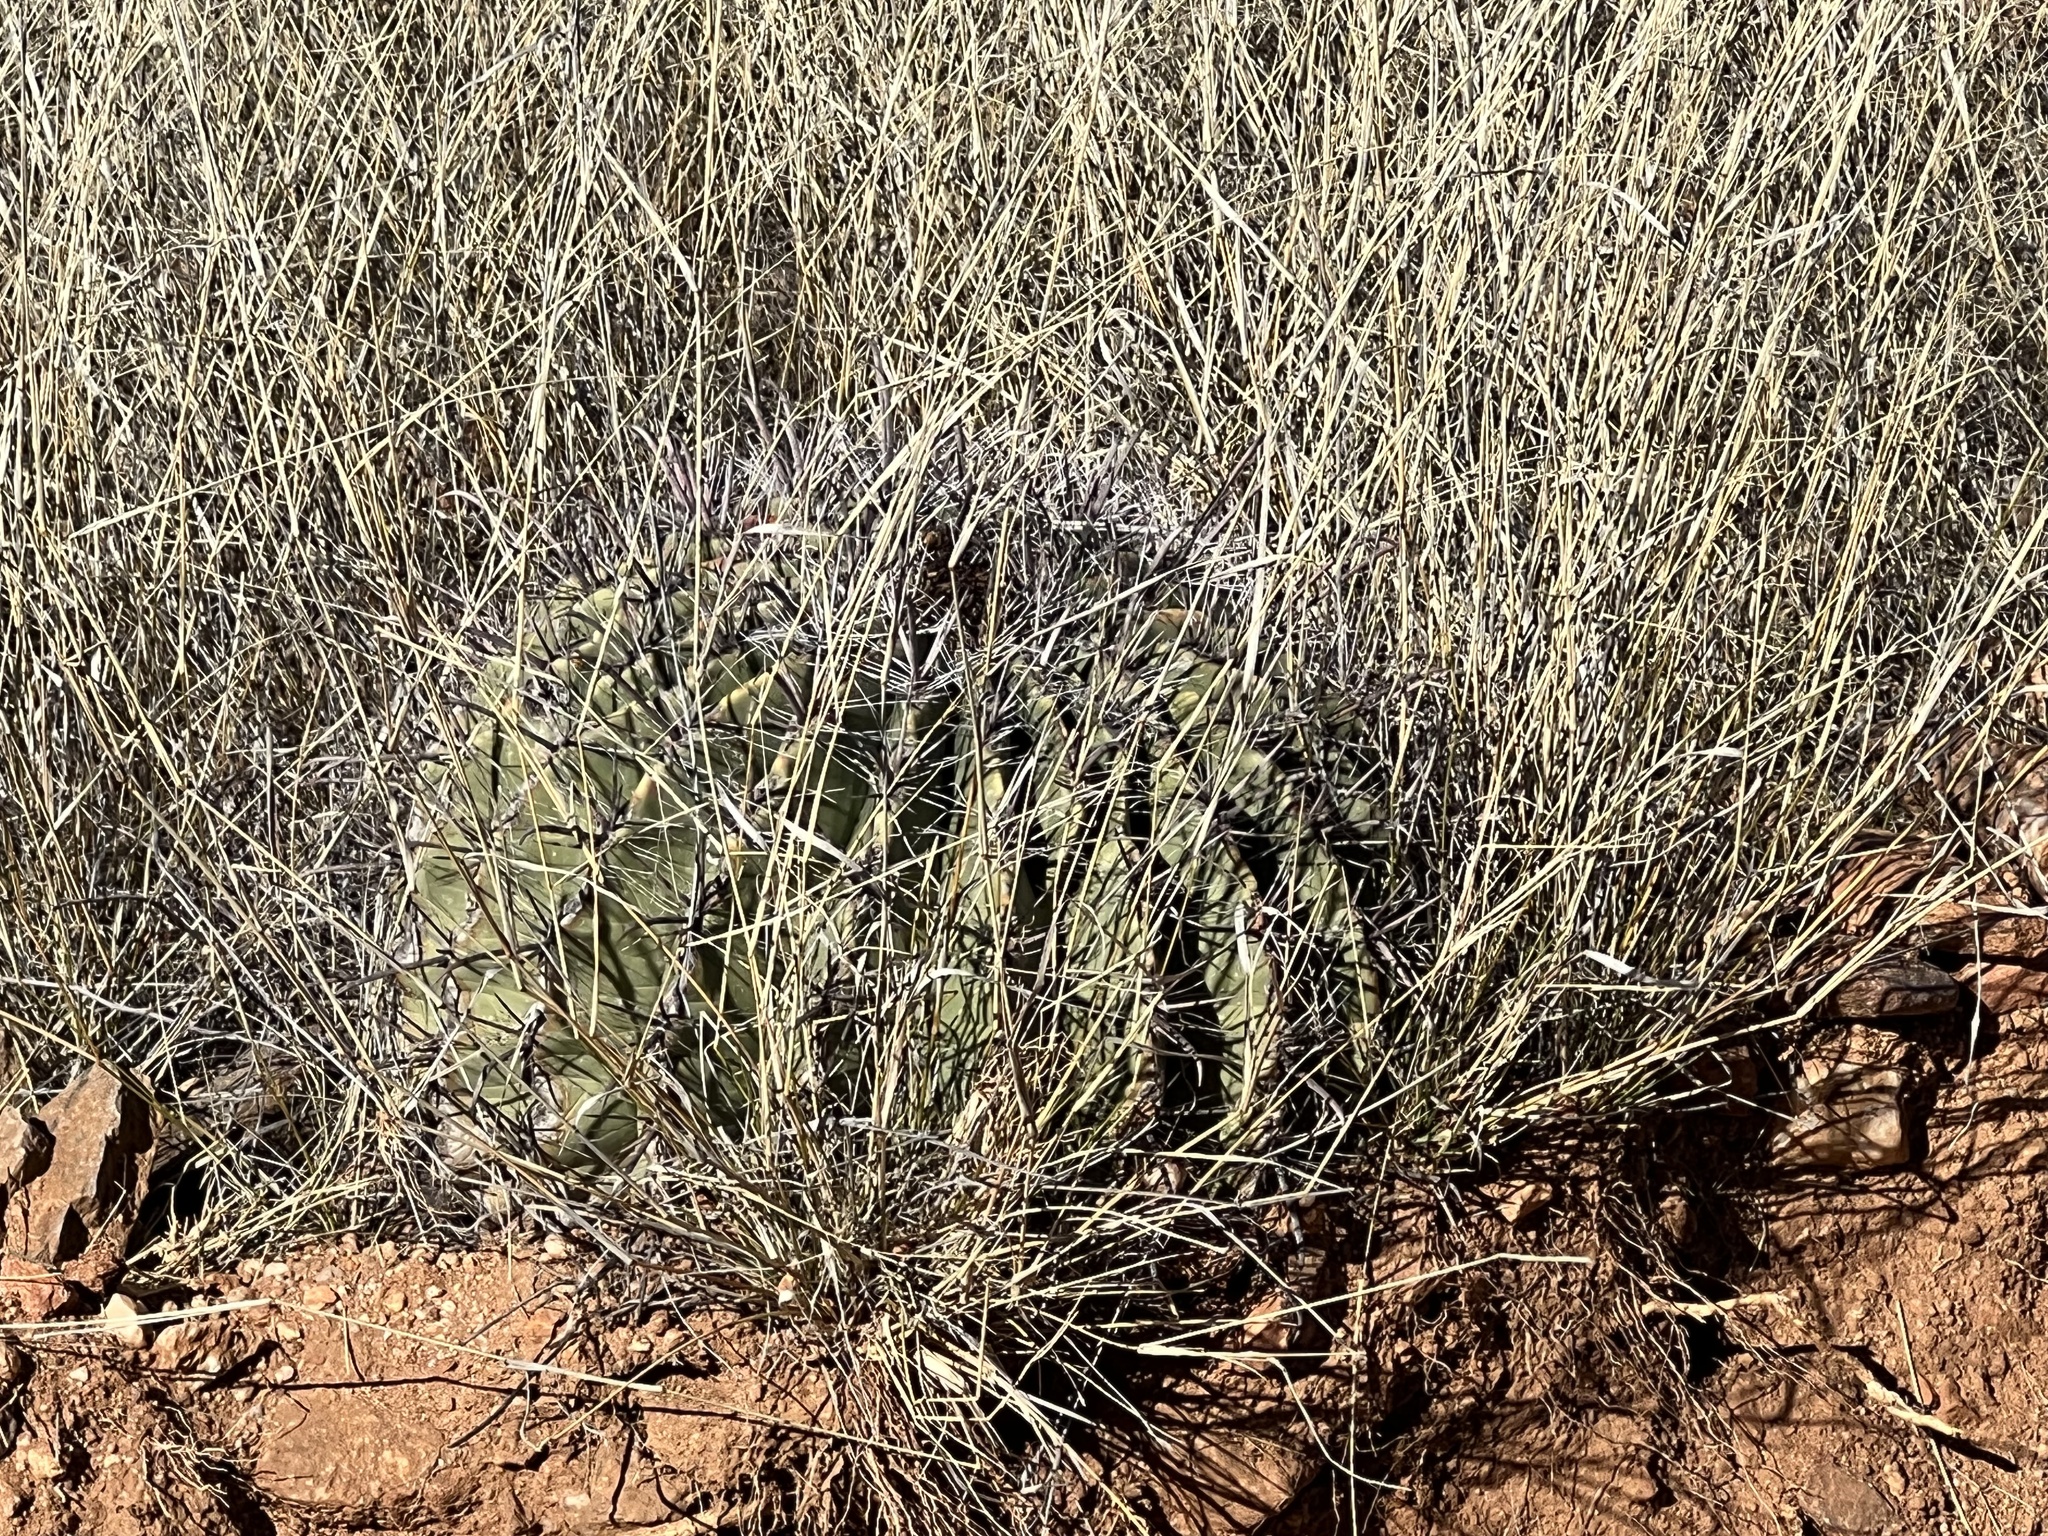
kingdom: Plantae
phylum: Tracheophyta
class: Magnoliopsida
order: Caryophyllales
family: Cactaceae
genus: Ferocactus
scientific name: Ferocactus wislizeni
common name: Candy barrel cactus
